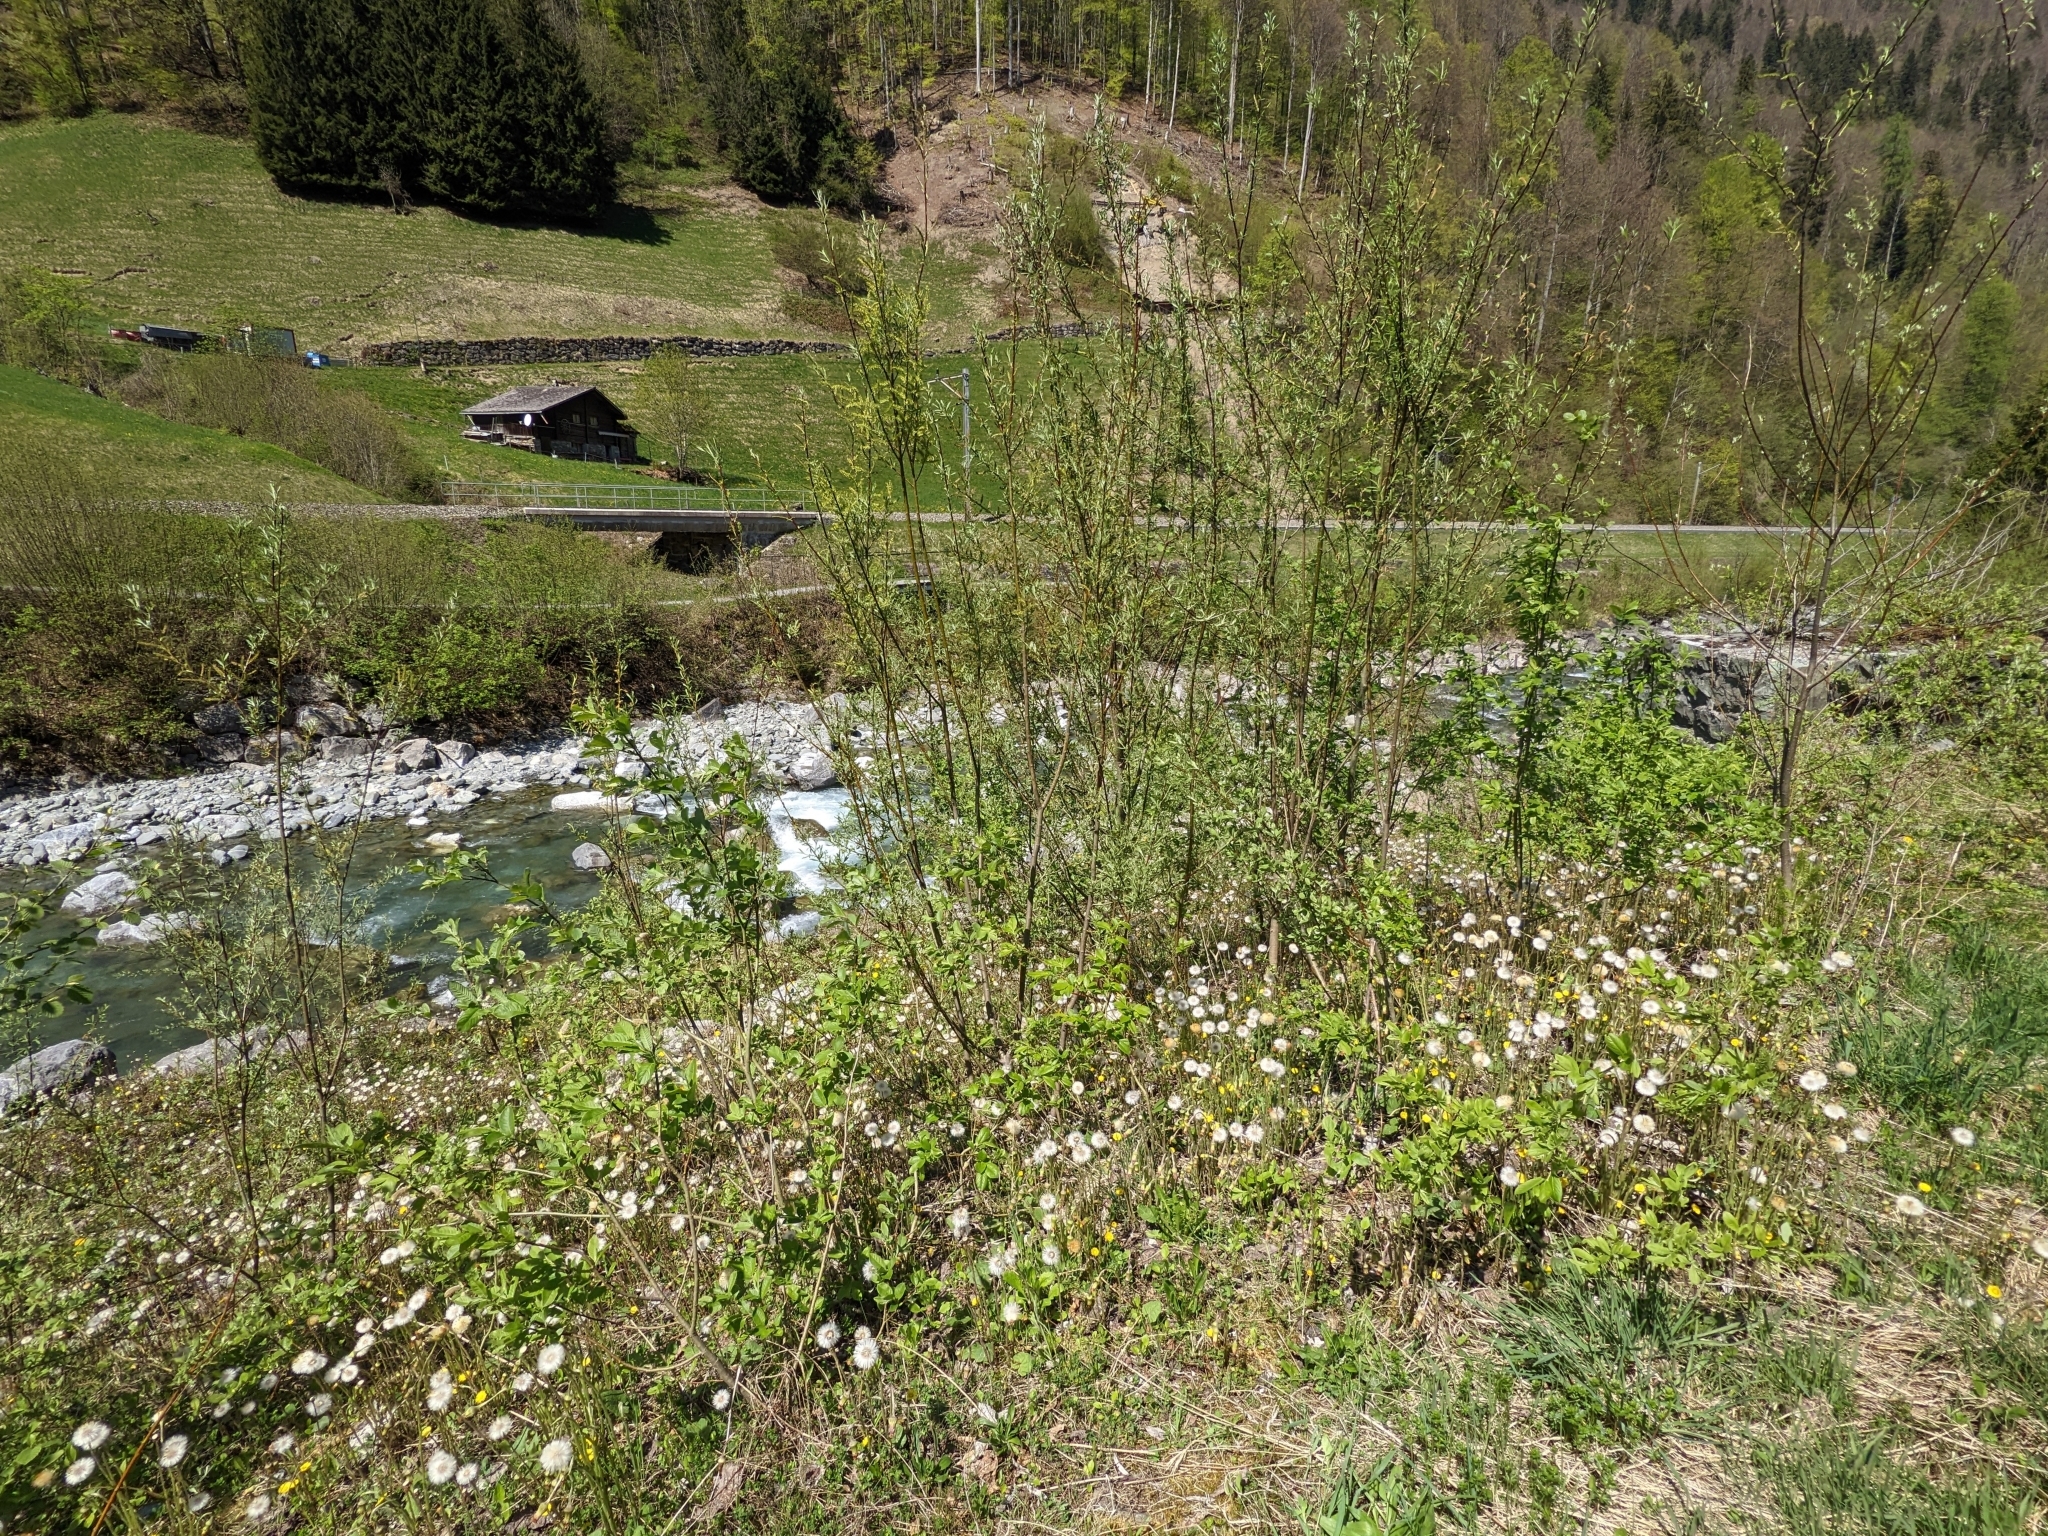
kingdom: Plantae
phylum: Tracheophyta
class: Magnoliopsida
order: Asterales
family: Asteraceae
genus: Tussilago
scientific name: Tussilago farfara
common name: Coltsfoot
